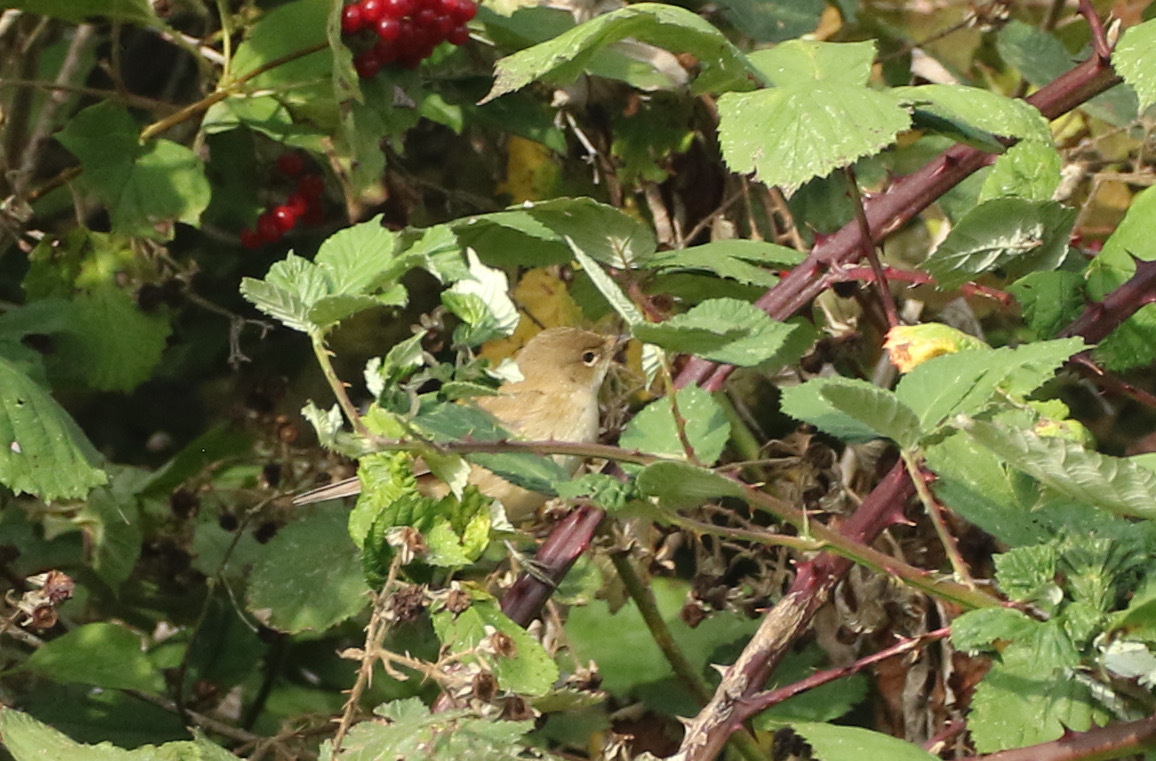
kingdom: Animalia
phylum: Chordata
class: Aves
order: Passeriformes
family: Acrocephalidae
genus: Acrocephalus
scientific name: Acrocephalus scirpaceus
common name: Eurasian reed warbler
